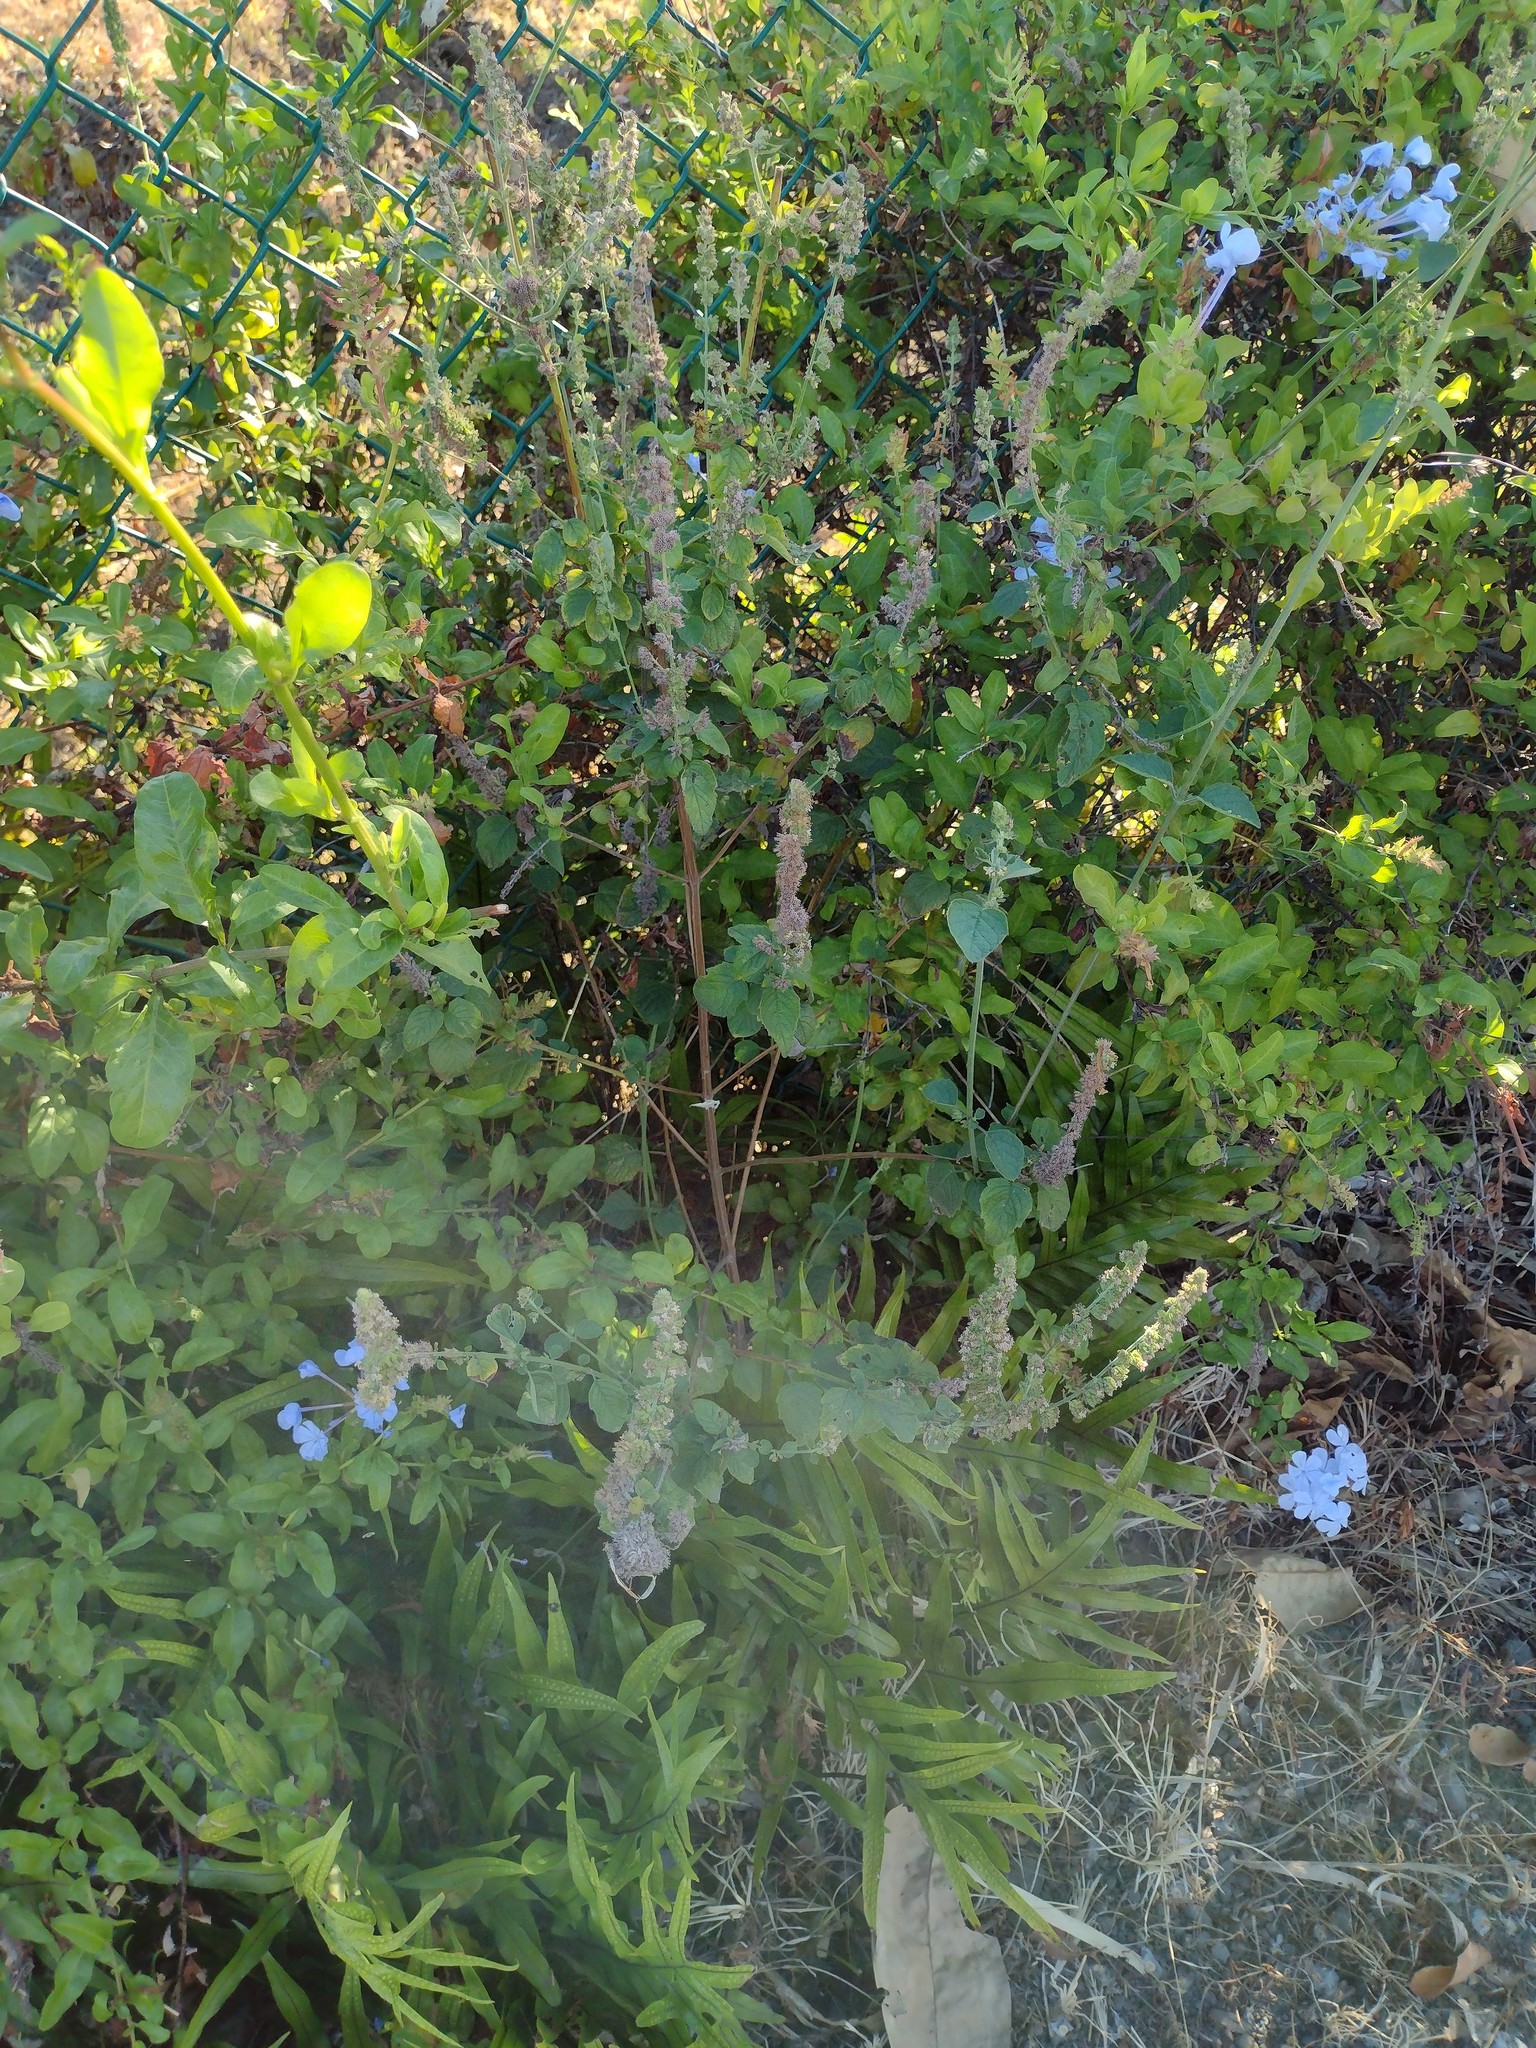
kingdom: Plantae
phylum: Tracheophyta
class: Polypodiopsida
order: Polypodiales
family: Polypodiaceae
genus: Microsorum
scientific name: Microsorum grossum
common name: Musk fern
